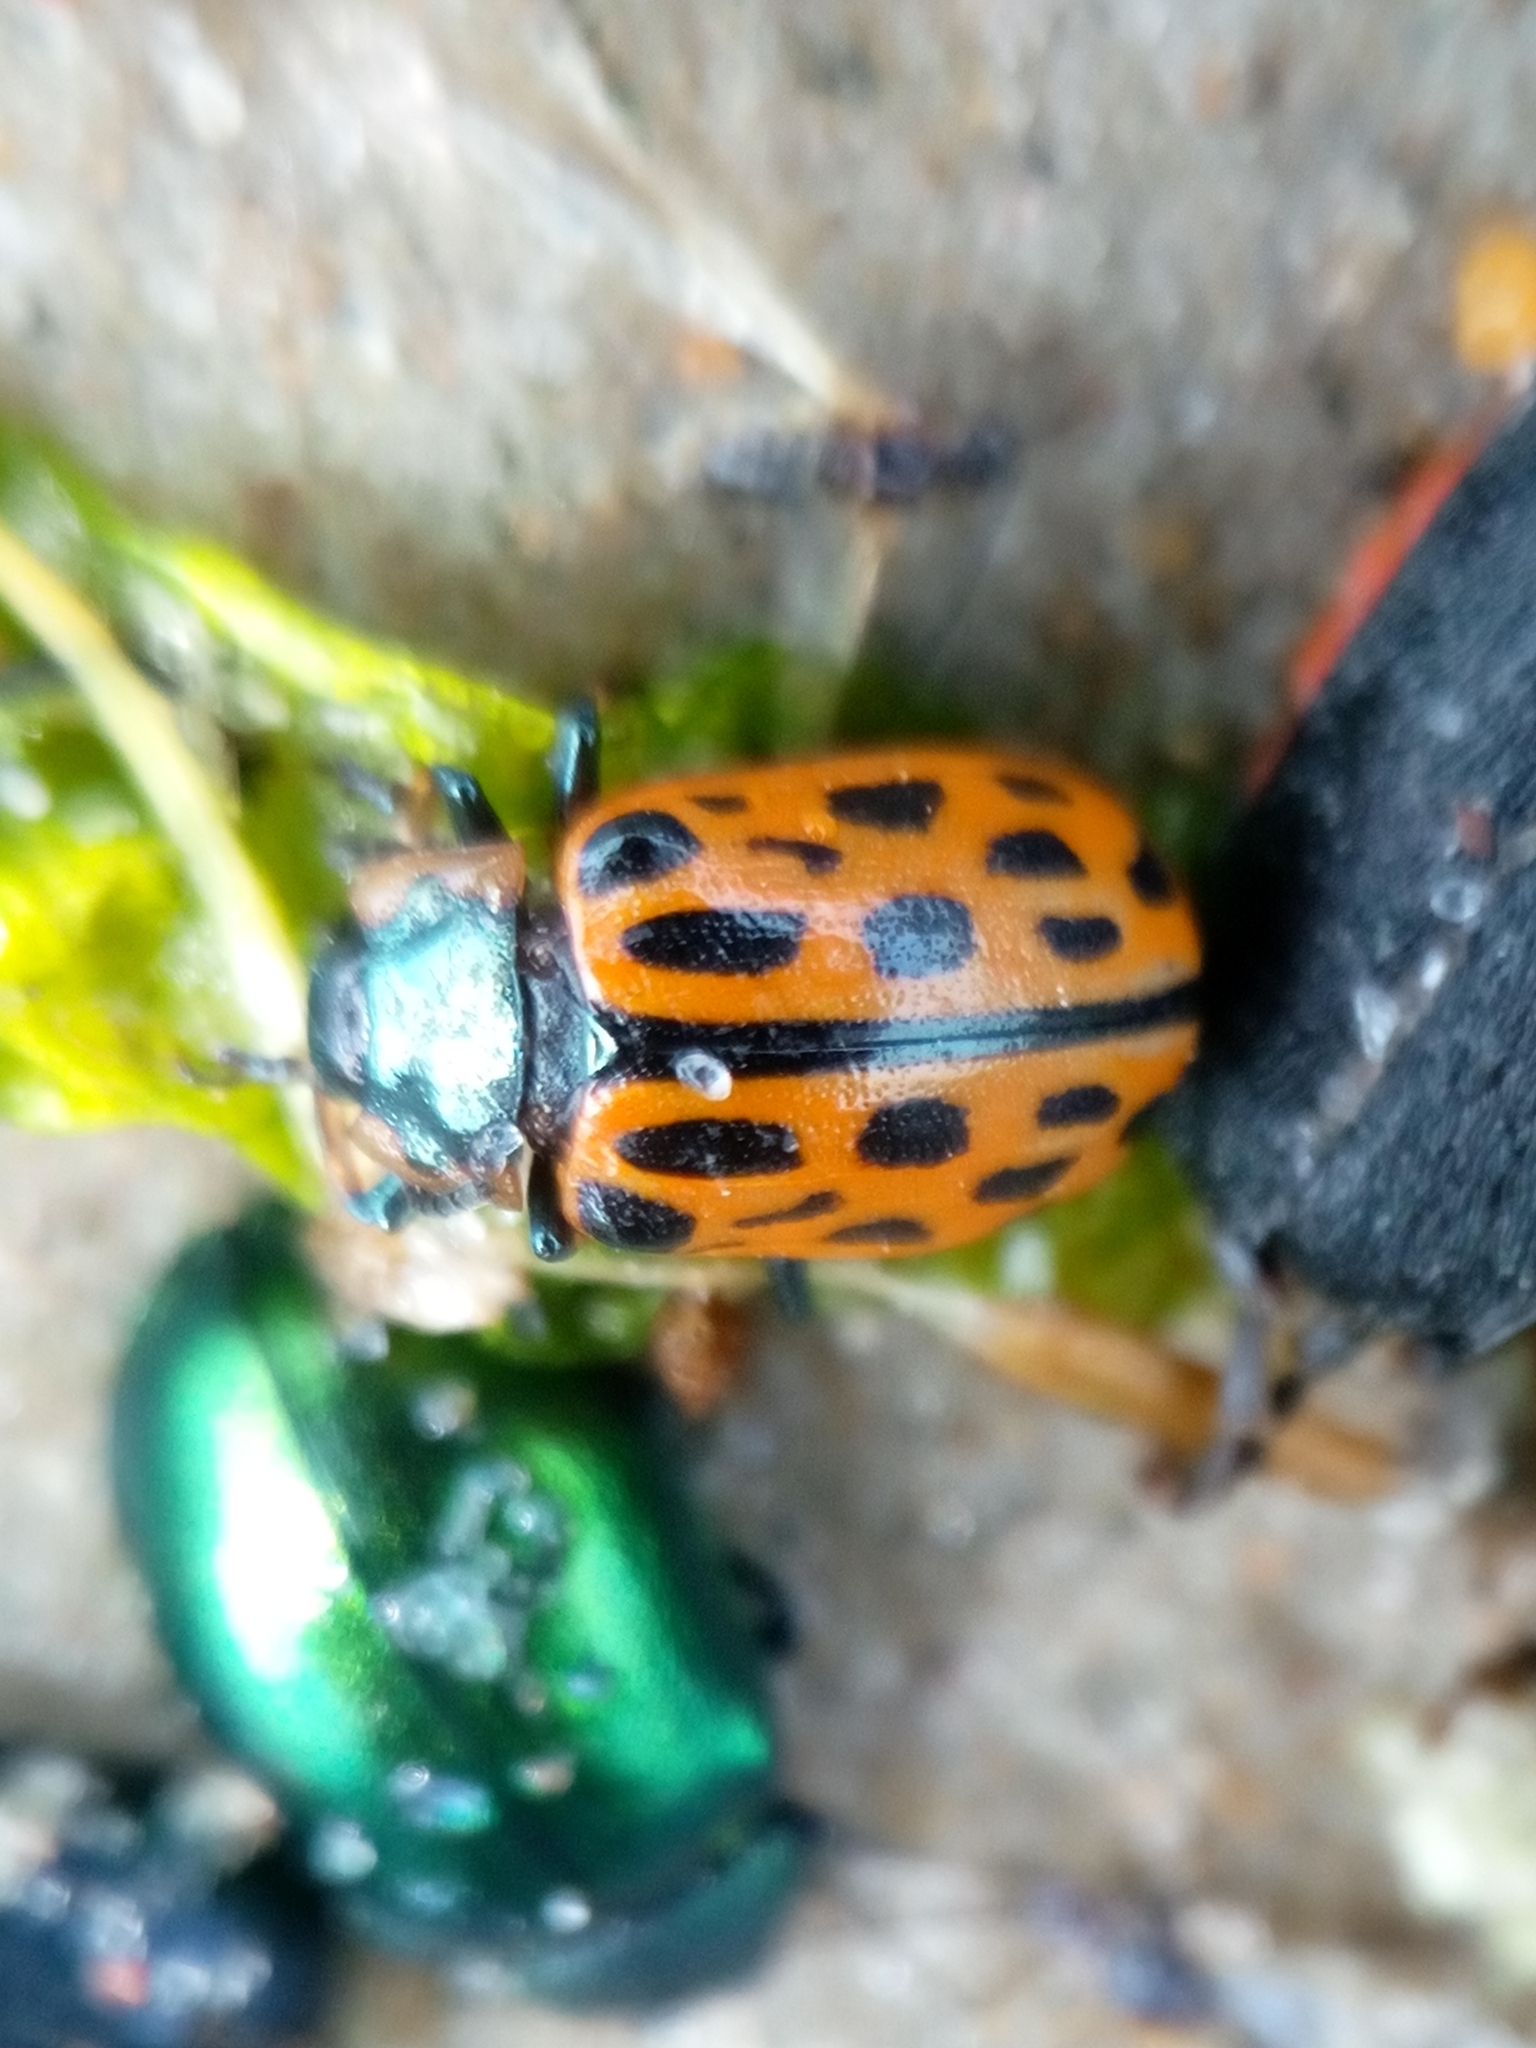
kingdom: Animalia
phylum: Arthropoda
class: Insecta
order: Coleoptera
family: Chrysomelidae
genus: Chrysomela
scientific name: Chrysomela vigintipunctata
